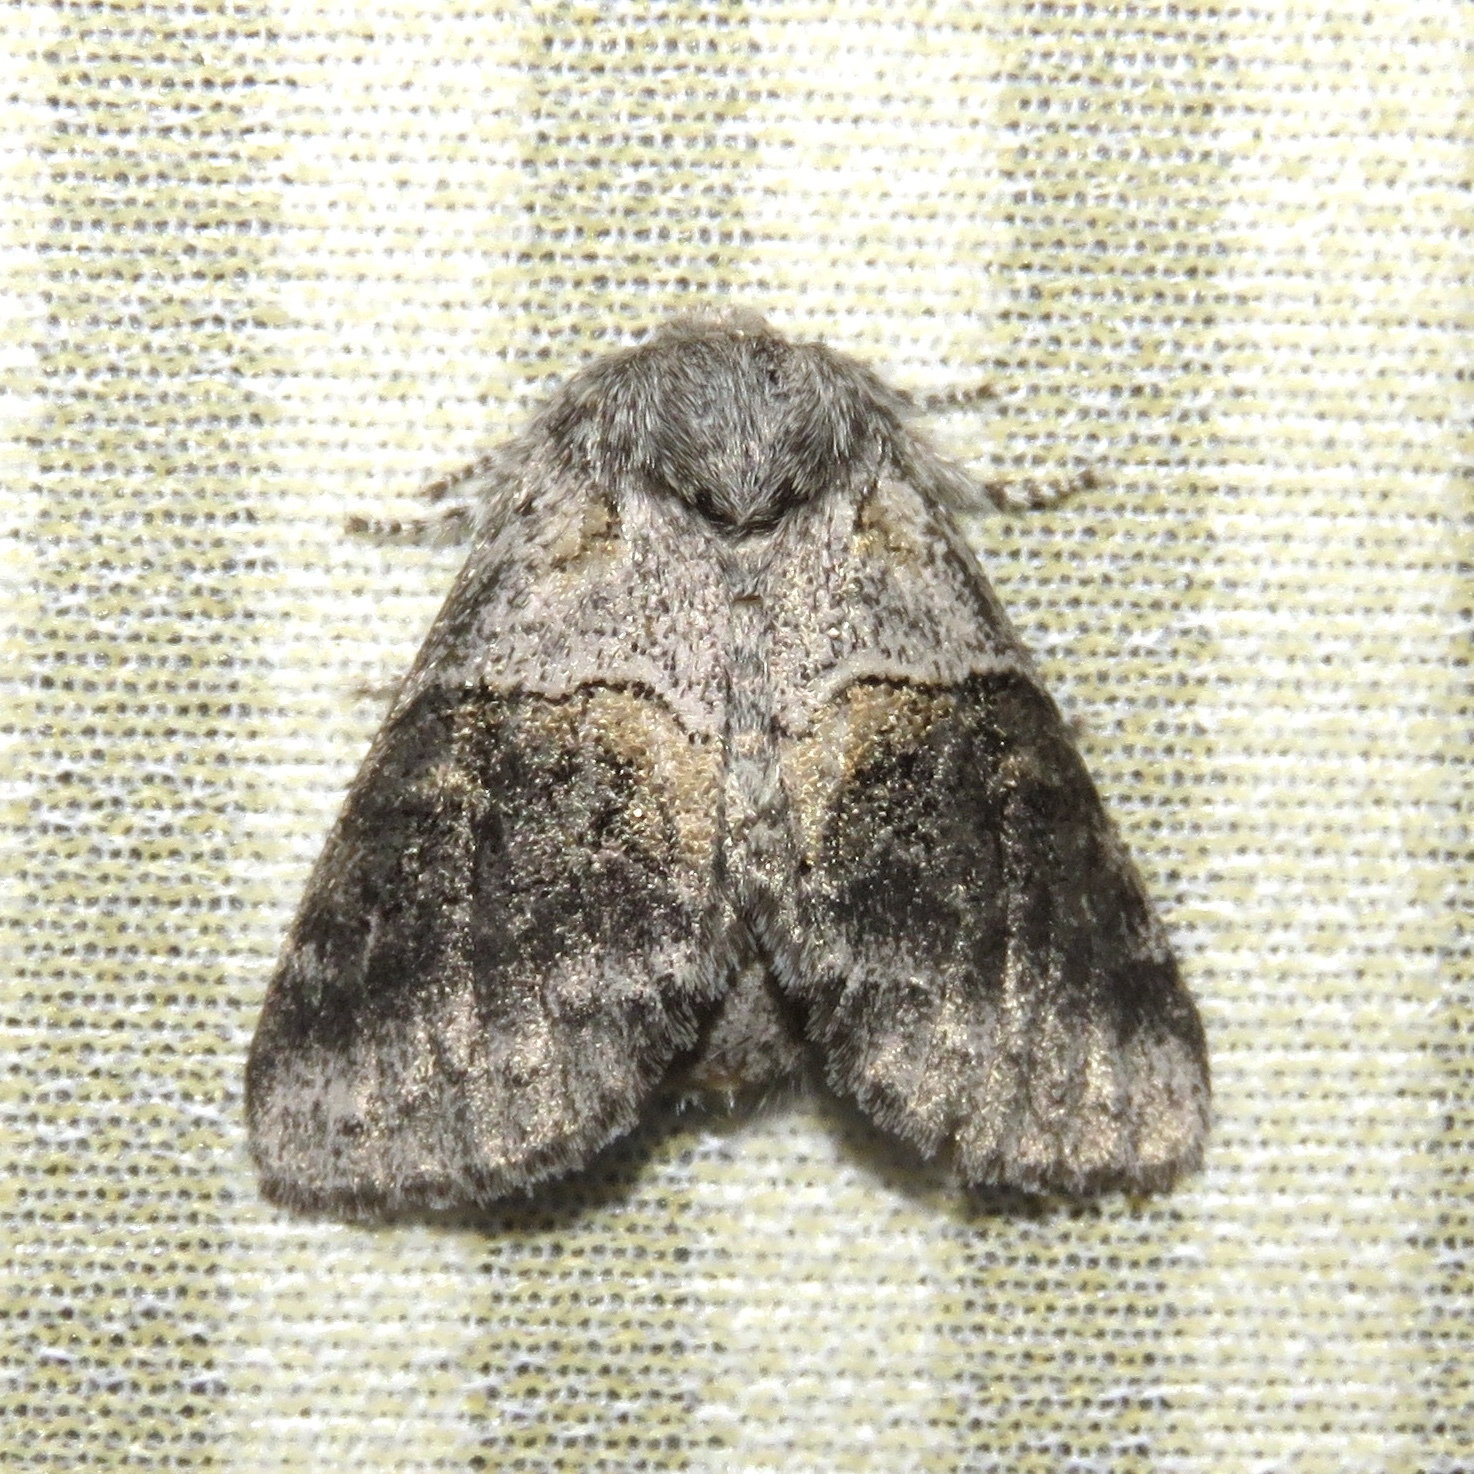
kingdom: Animalia
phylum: Arthropoda
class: Insecta
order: Lepidoptera
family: Notodontidae
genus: Gluphisia
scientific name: Gluphisia septentrionis
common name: Common gluphisia
